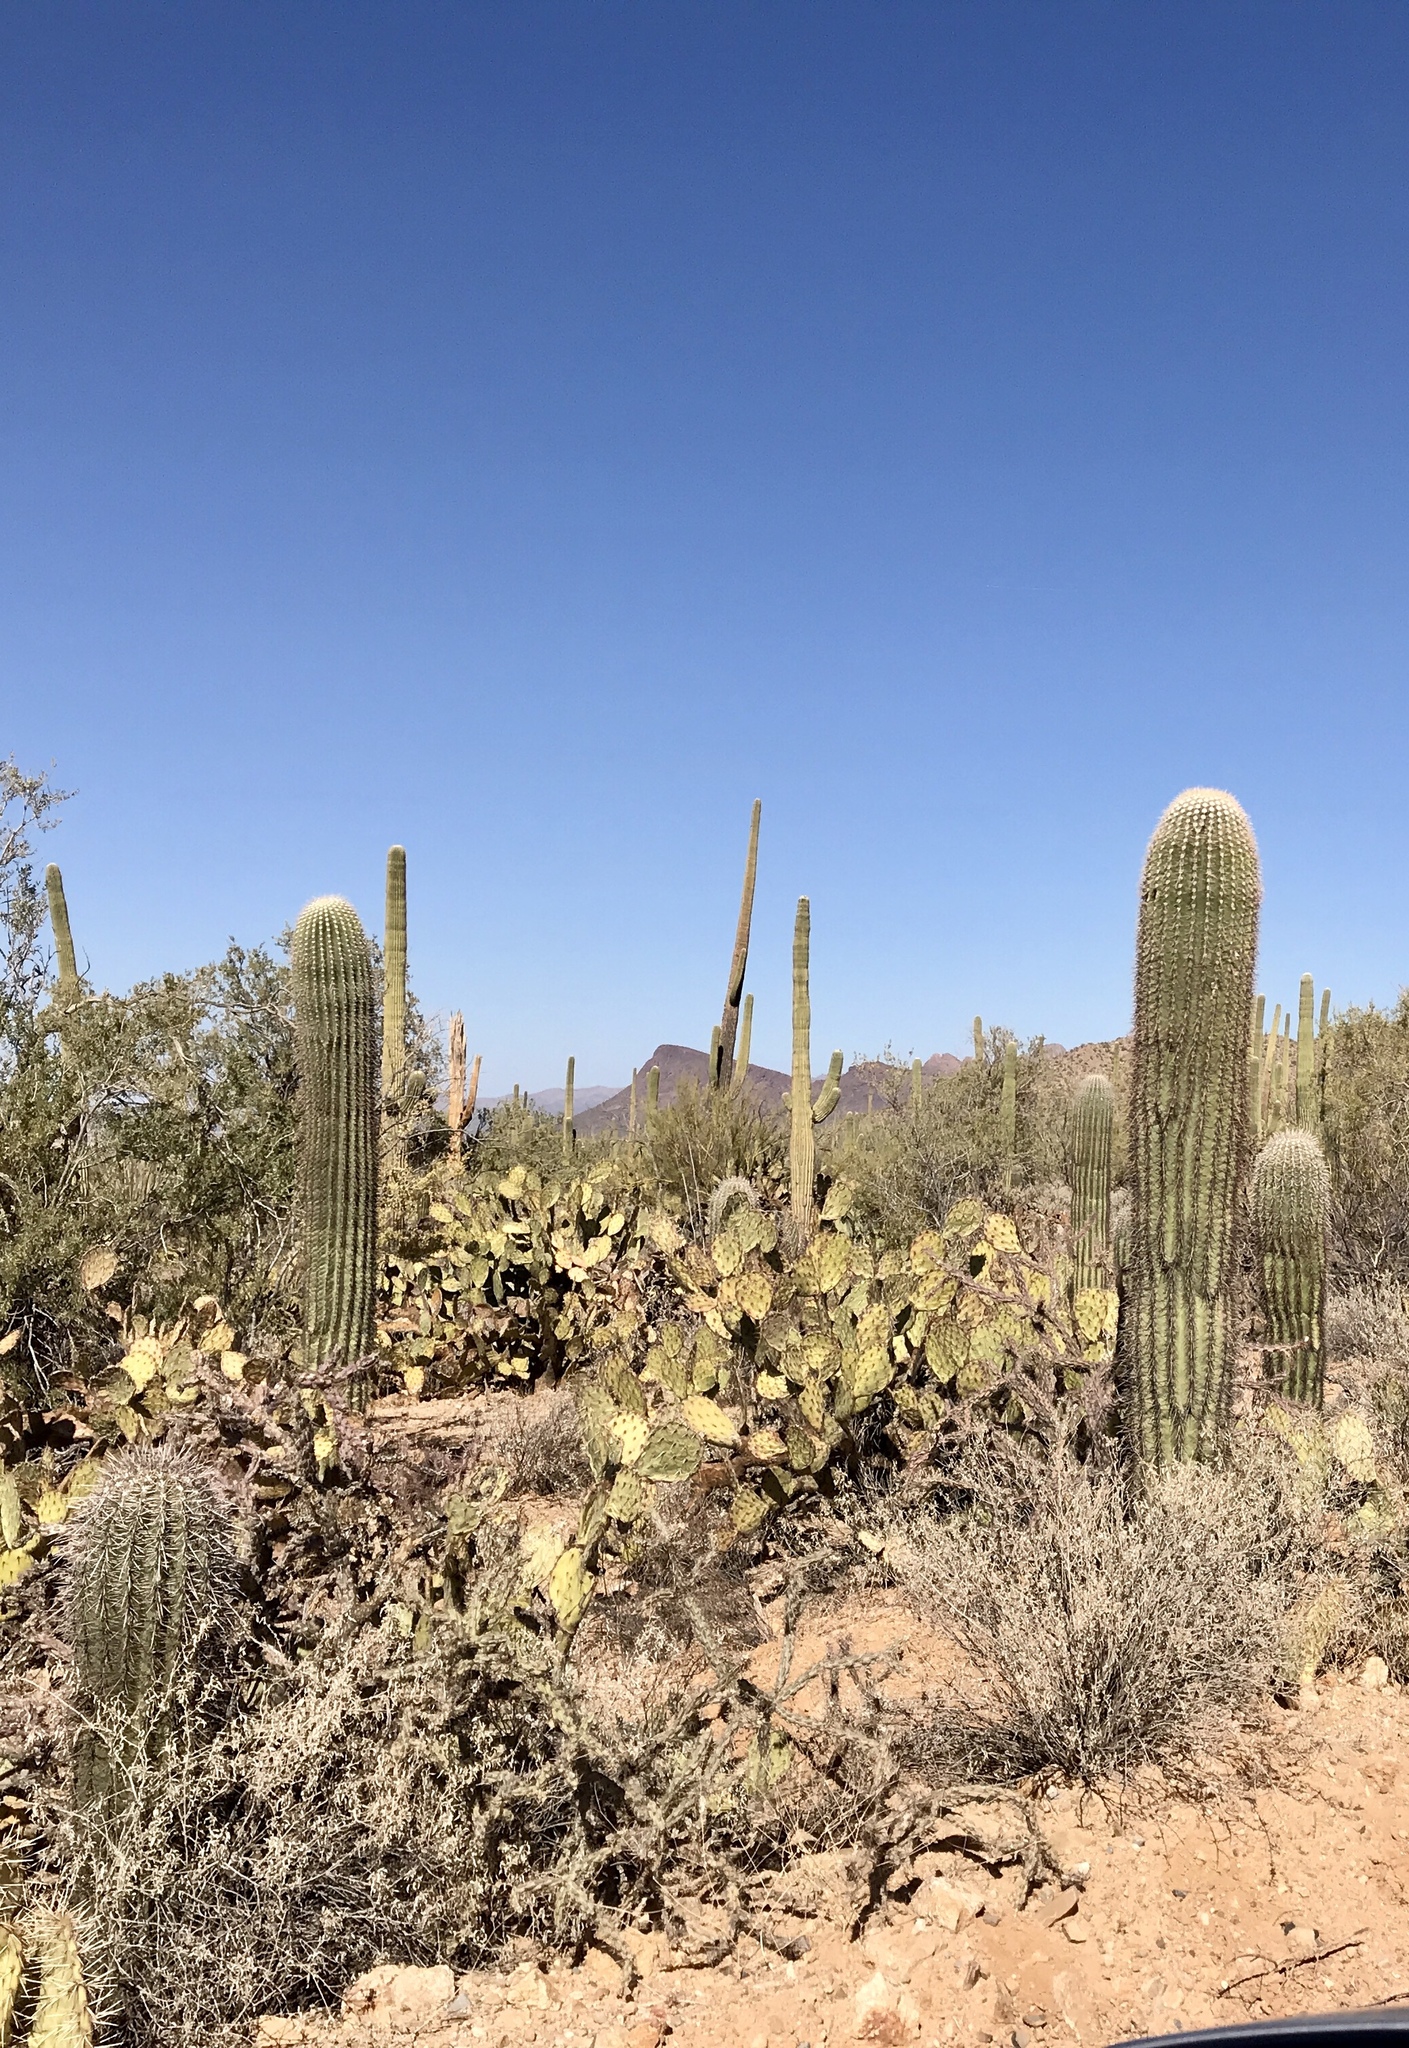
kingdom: Plantae
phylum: Tracheophyta
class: Magnoliopsida
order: Caryophyllales
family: Cactaceae
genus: Carnegiea
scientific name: Carnegiea gigantea
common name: Saguaro
